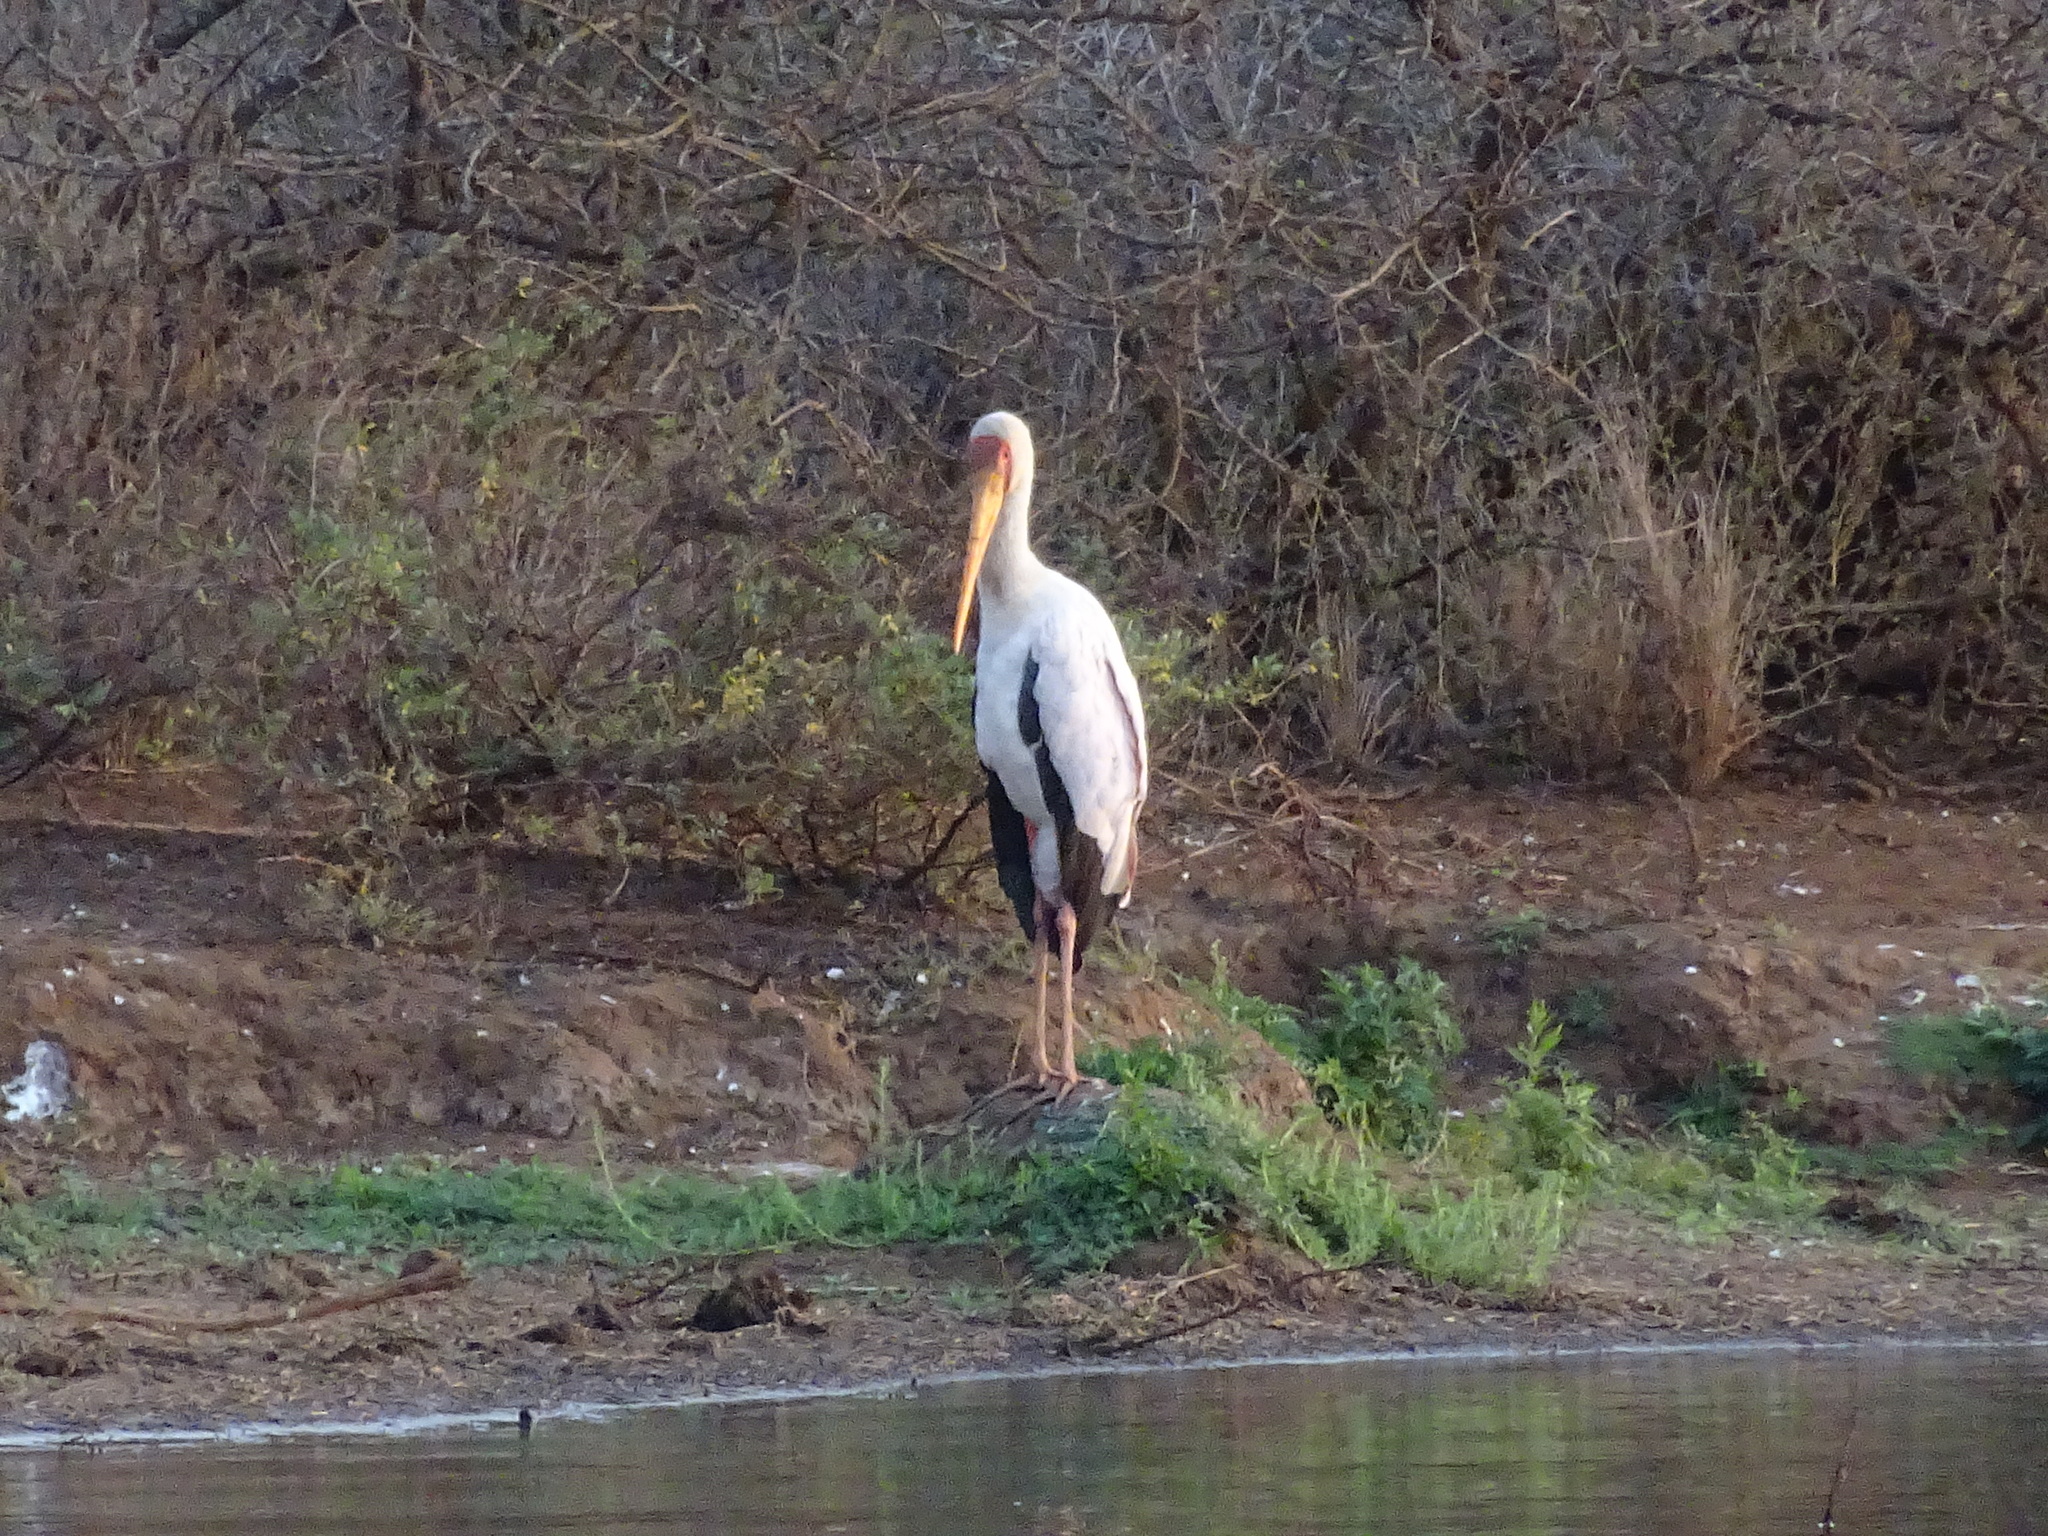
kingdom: Animalia
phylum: Chordata
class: Aves
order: Ciconiiformes
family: Ciconiidae
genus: Mycteria
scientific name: Mycteria ibis
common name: Yellow-billed stork
